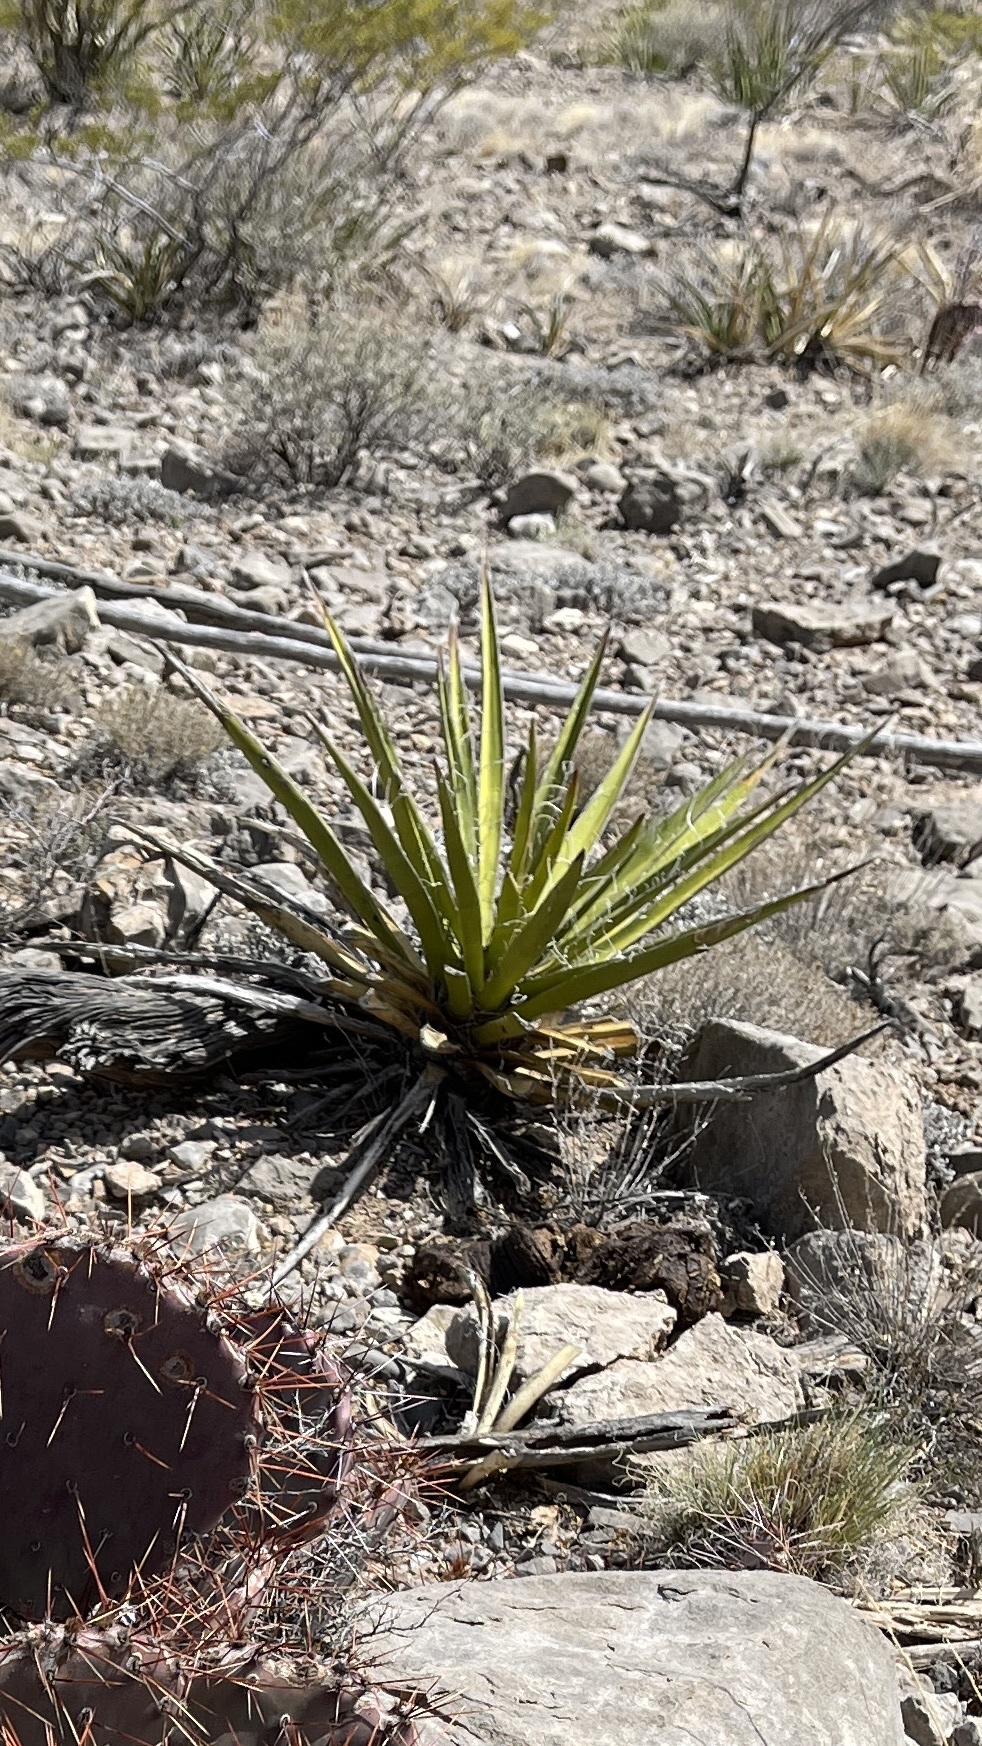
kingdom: Plantae
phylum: Tracheophyta
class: Liliopsida
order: Asparagales
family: Asparagaceae
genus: Yucca
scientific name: Yucca baccata
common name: Banana yucca
